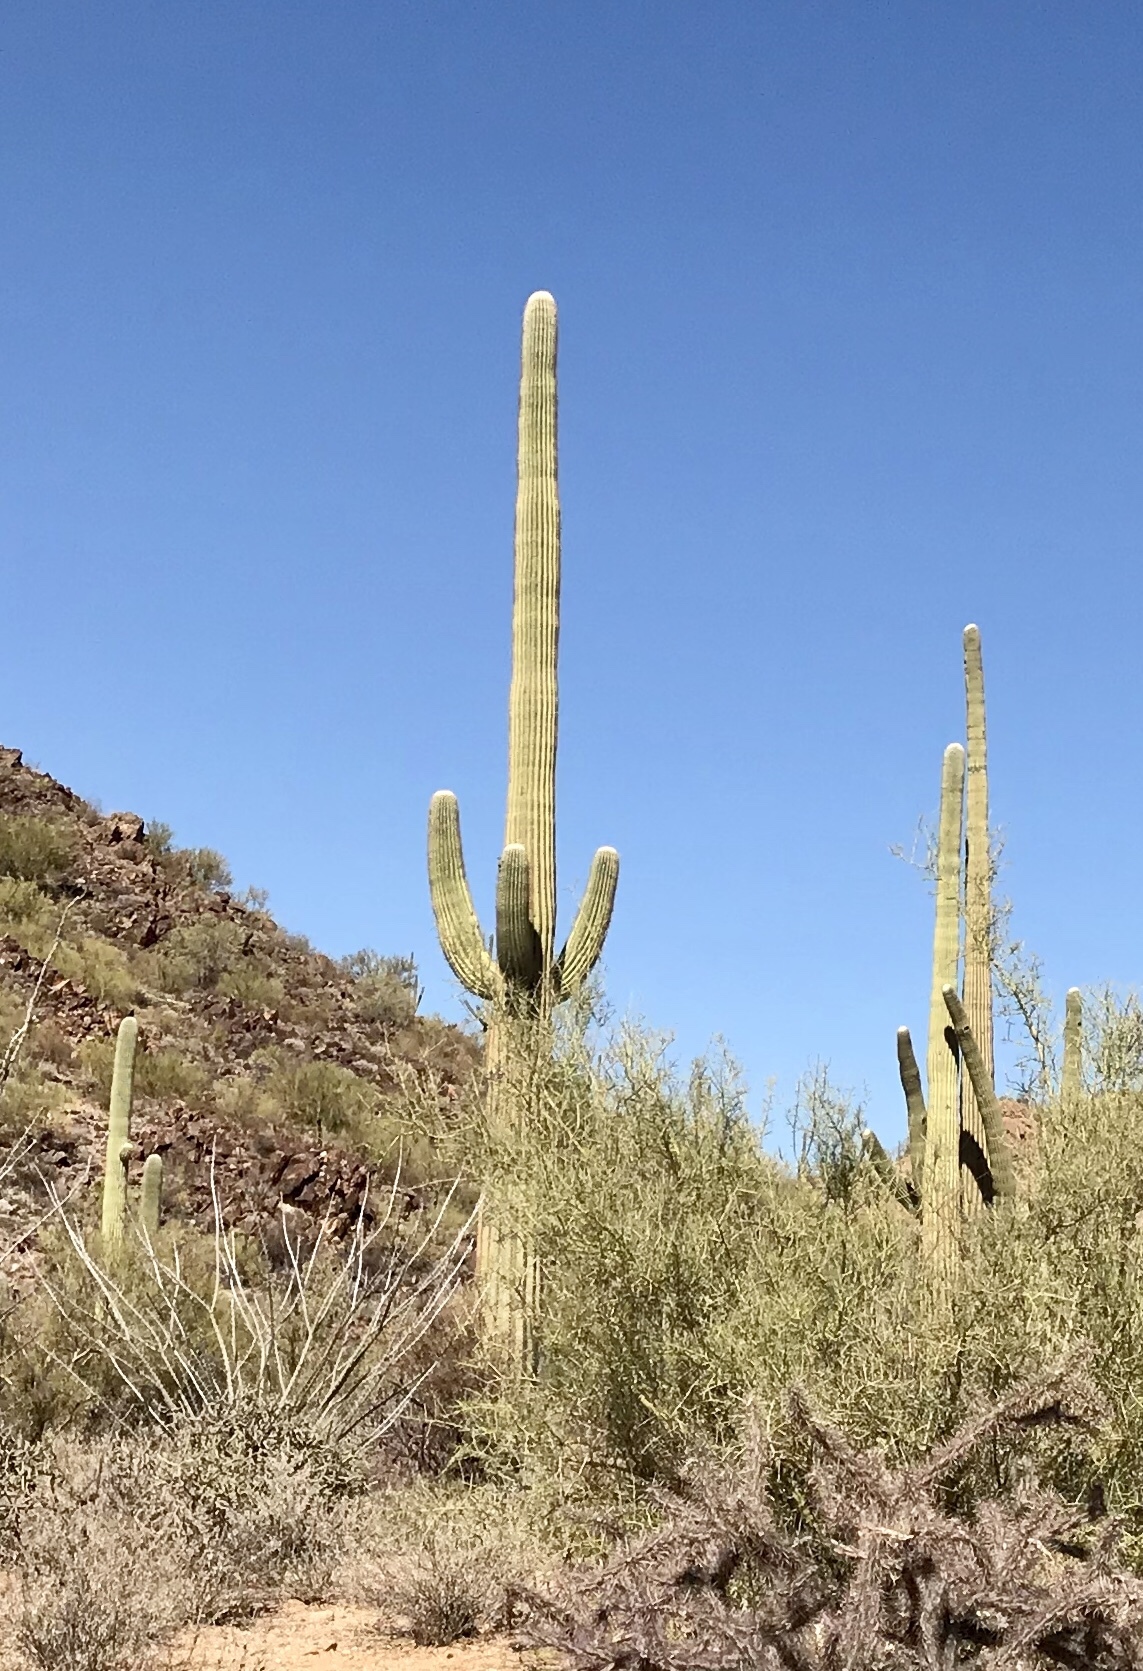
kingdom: Plantae
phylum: Tracheophyta
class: Magnoliopsida
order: Caryophyllales
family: Cactaceae
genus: Carnegiea
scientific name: Carnegiea gigantea
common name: Saguaro
